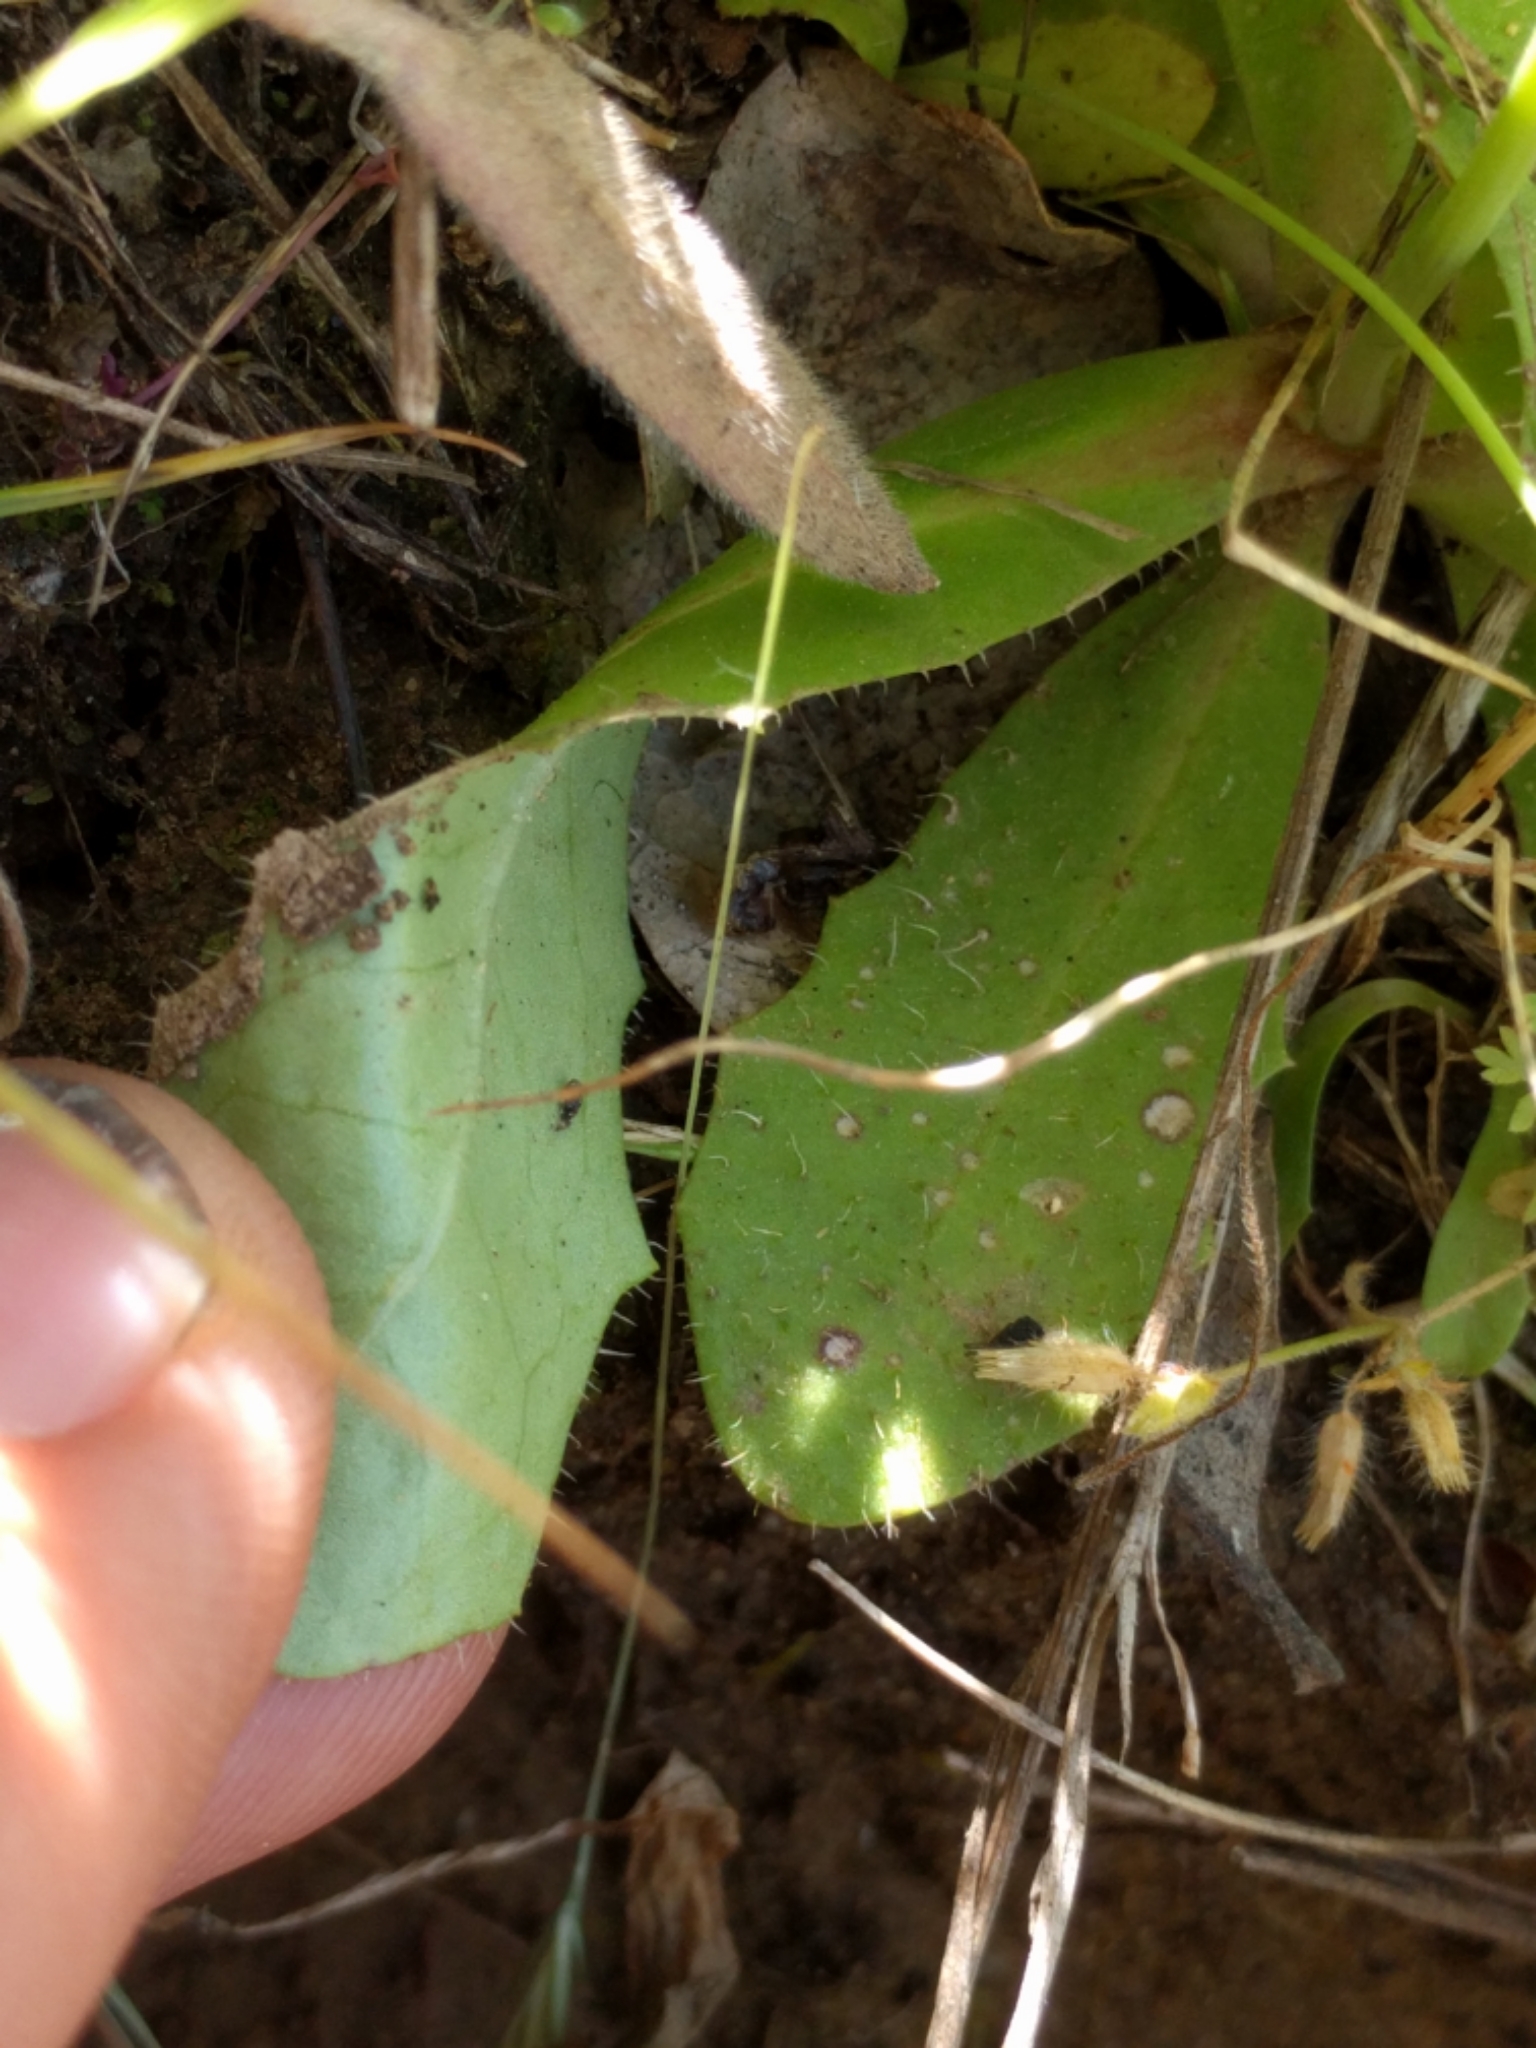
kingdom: Plantae
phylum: Tracheophyta
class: Magnoliopsida
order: Asterales
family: Asteraceae
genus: Hypochaeris
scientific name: Hypochaeris glabra
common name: Smooth catsear
